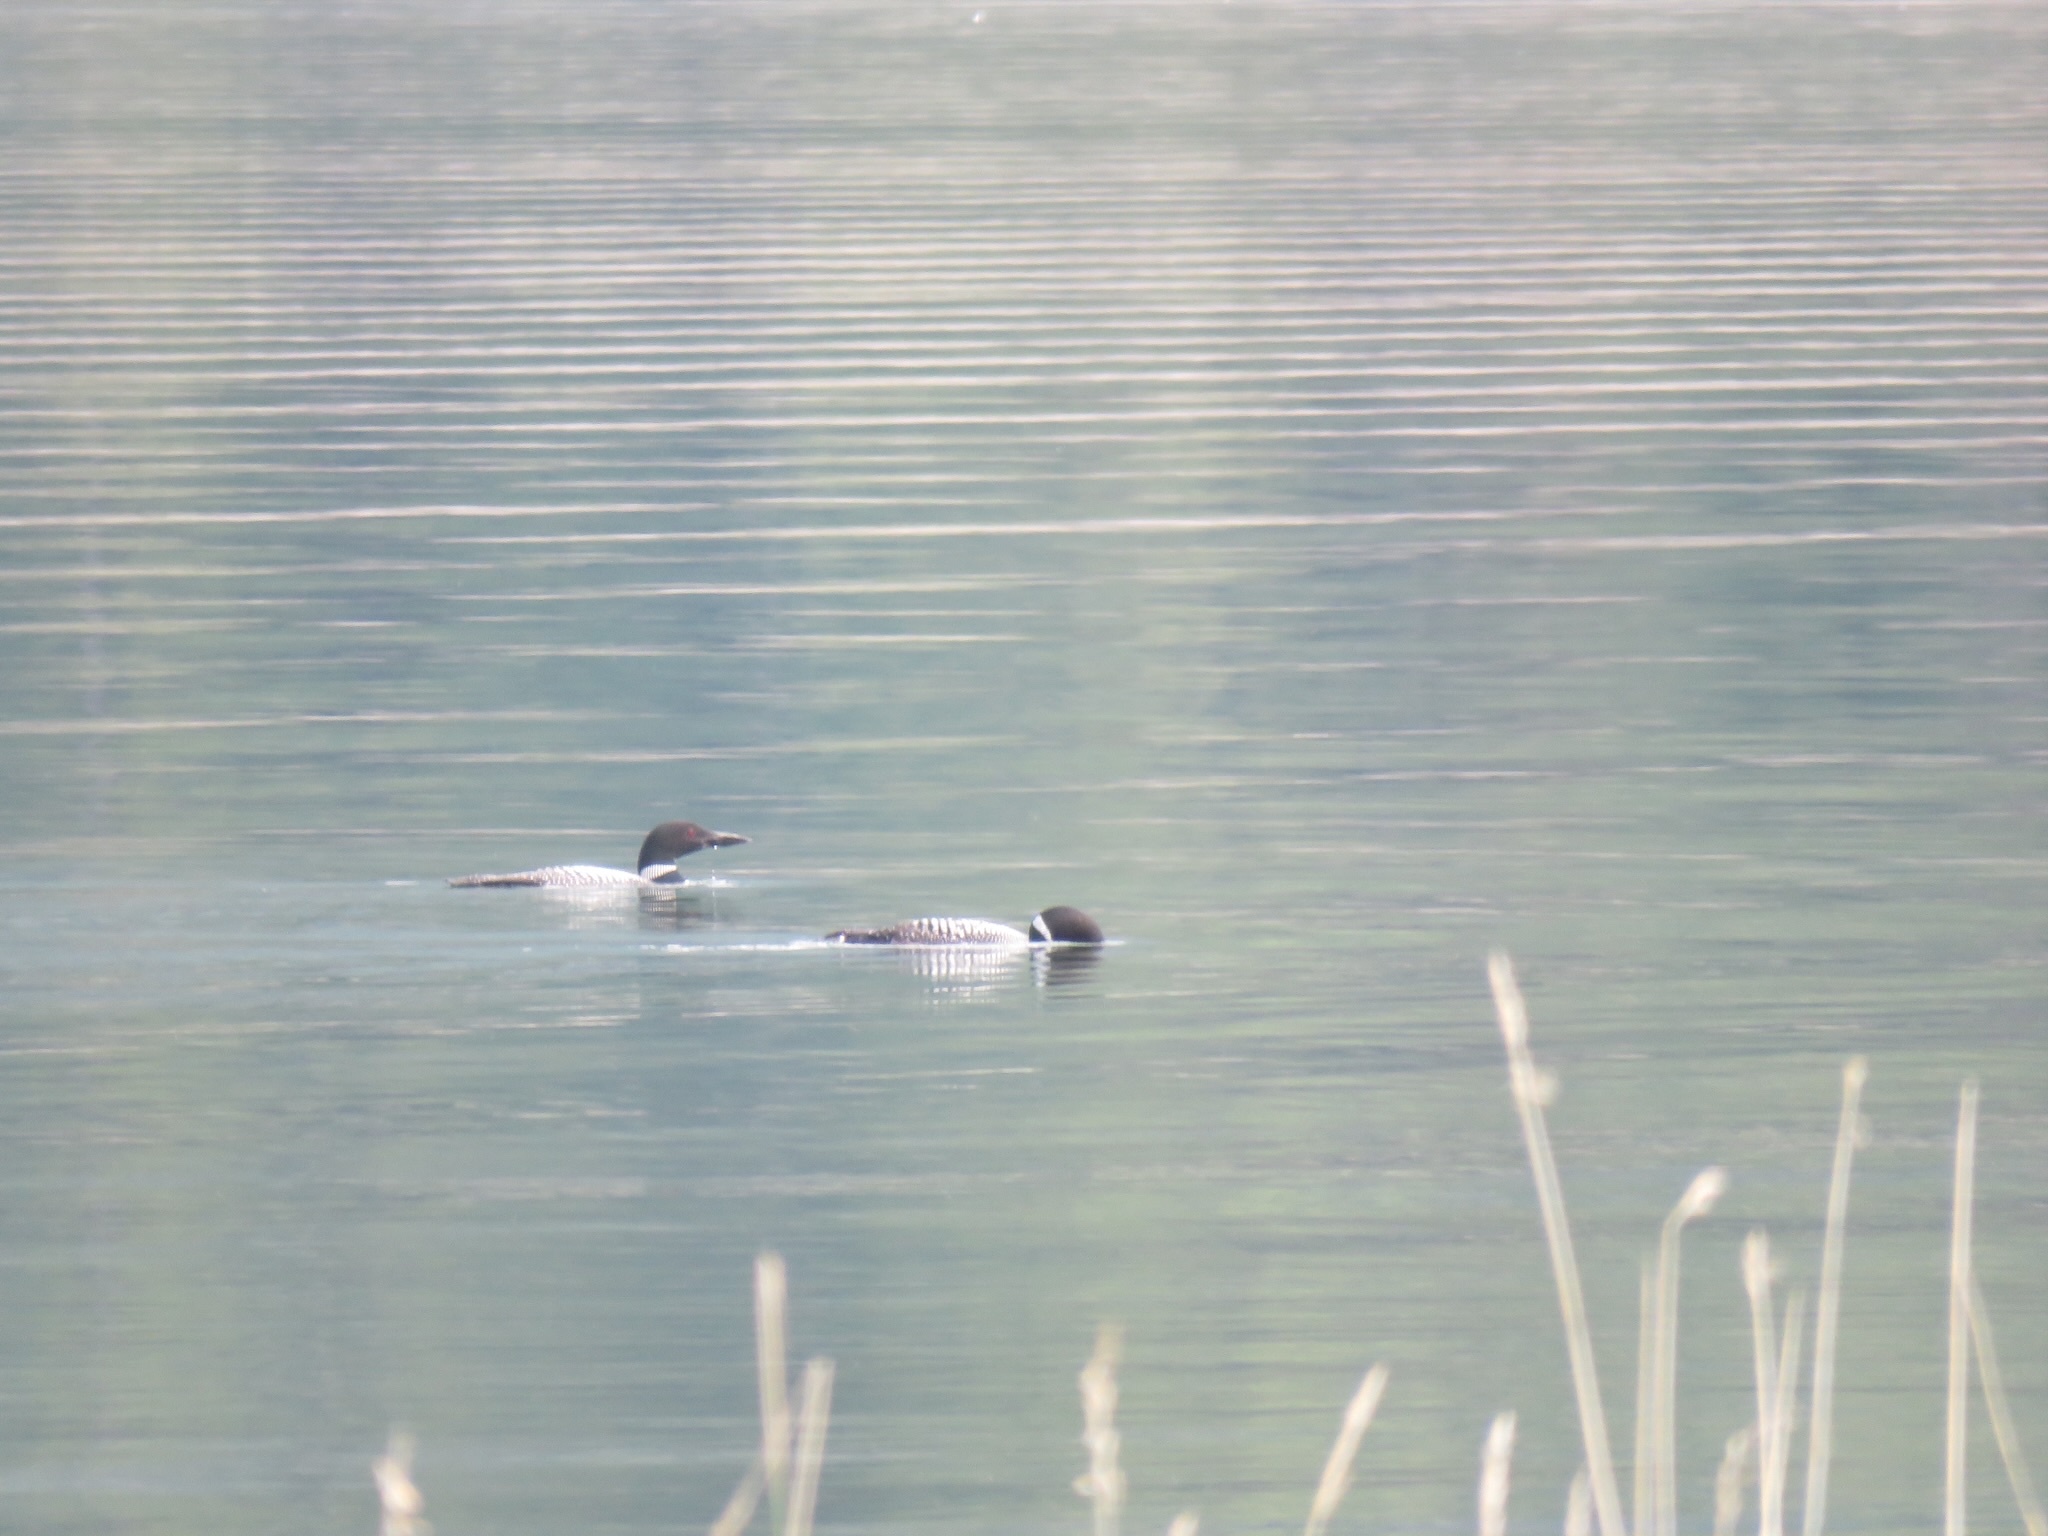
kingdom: Animalia
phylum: Chordata
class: Aves
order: Gaviiformes
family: Gaviidae
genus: Gavia
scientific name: Gavia immer
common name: Common loon
